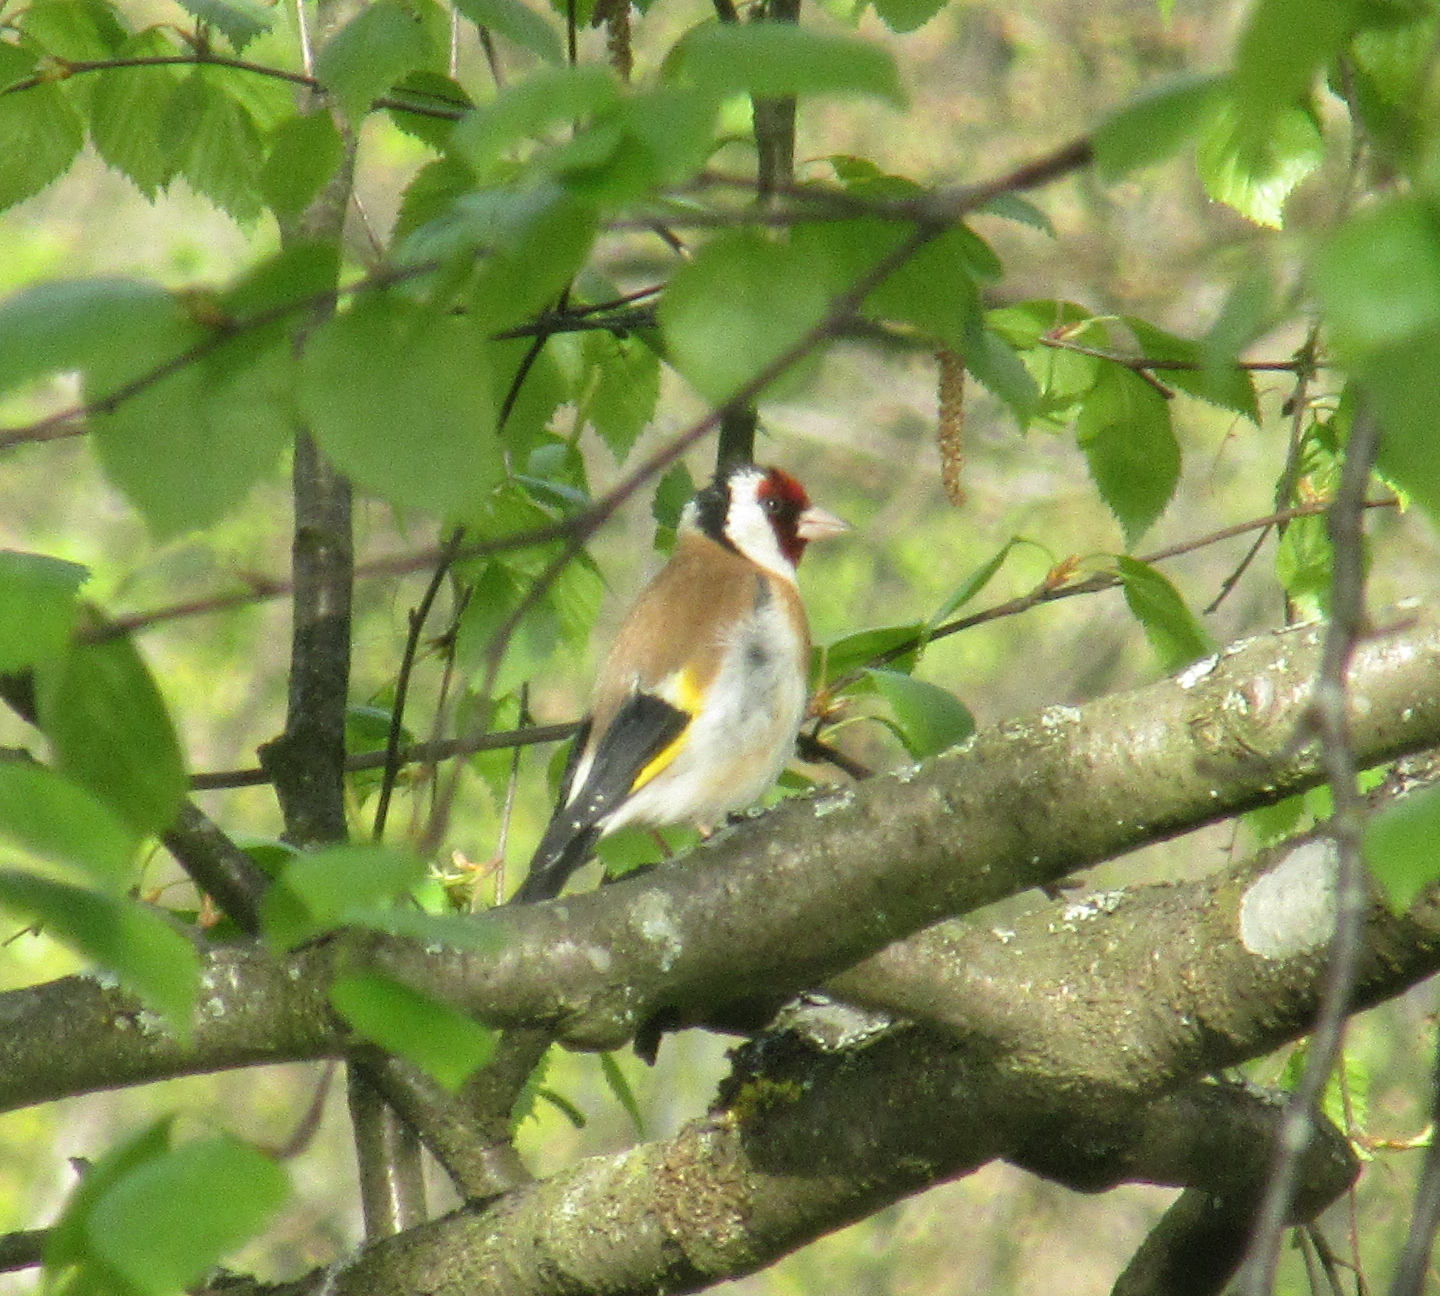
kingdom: Animalia
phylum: Chordata
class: Aves
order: Passeriformes
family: Fringillidae
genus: Carduelis
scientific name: Carduelis carduelis
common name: European goldfinch
